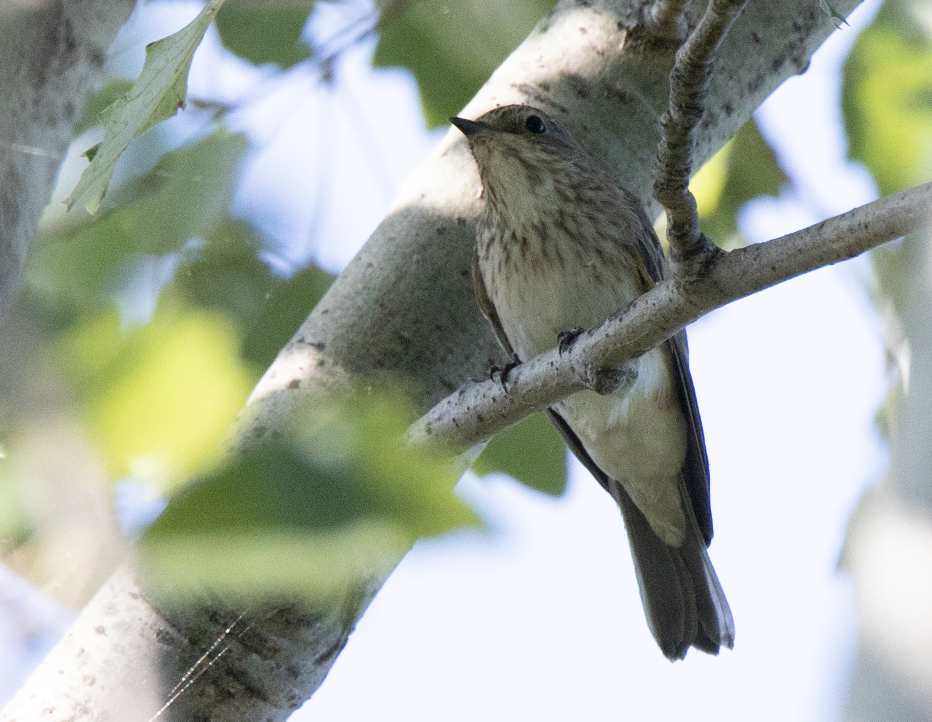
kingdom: Animalia
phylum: Chordata
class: Aves
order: Passeriformes
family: Muscicapidae
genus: Muscicapa
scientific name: Muscicapa striata
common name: Spotted flycatcher
